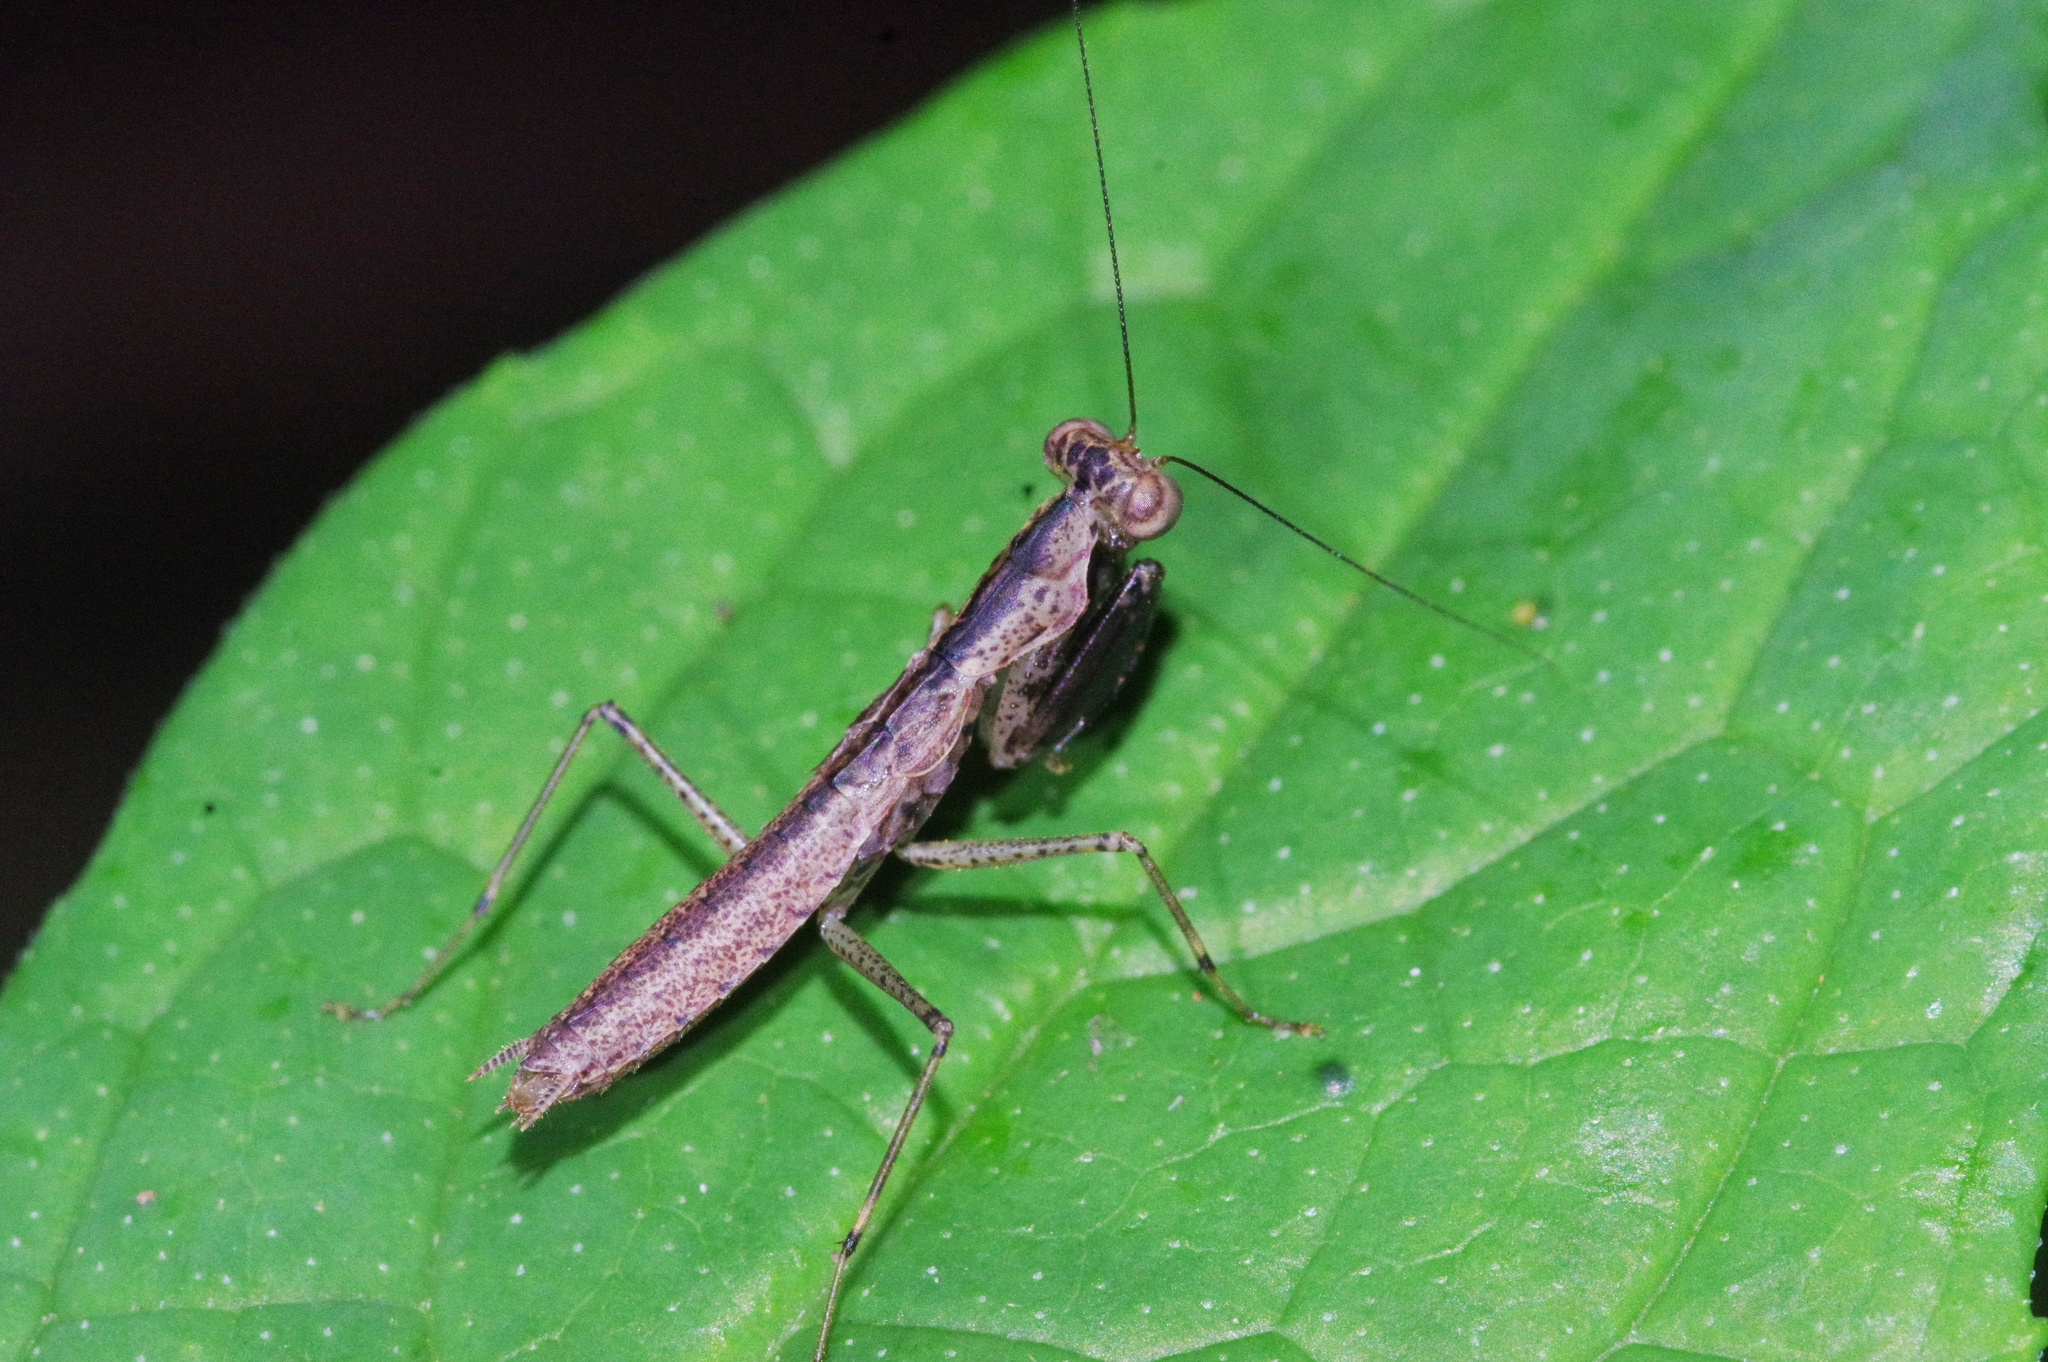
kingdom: Animalia
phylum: Arthropoda
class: Insecta
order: Mantodea
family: Gonypetidae
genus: Amantis
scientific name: Amantis nawai
